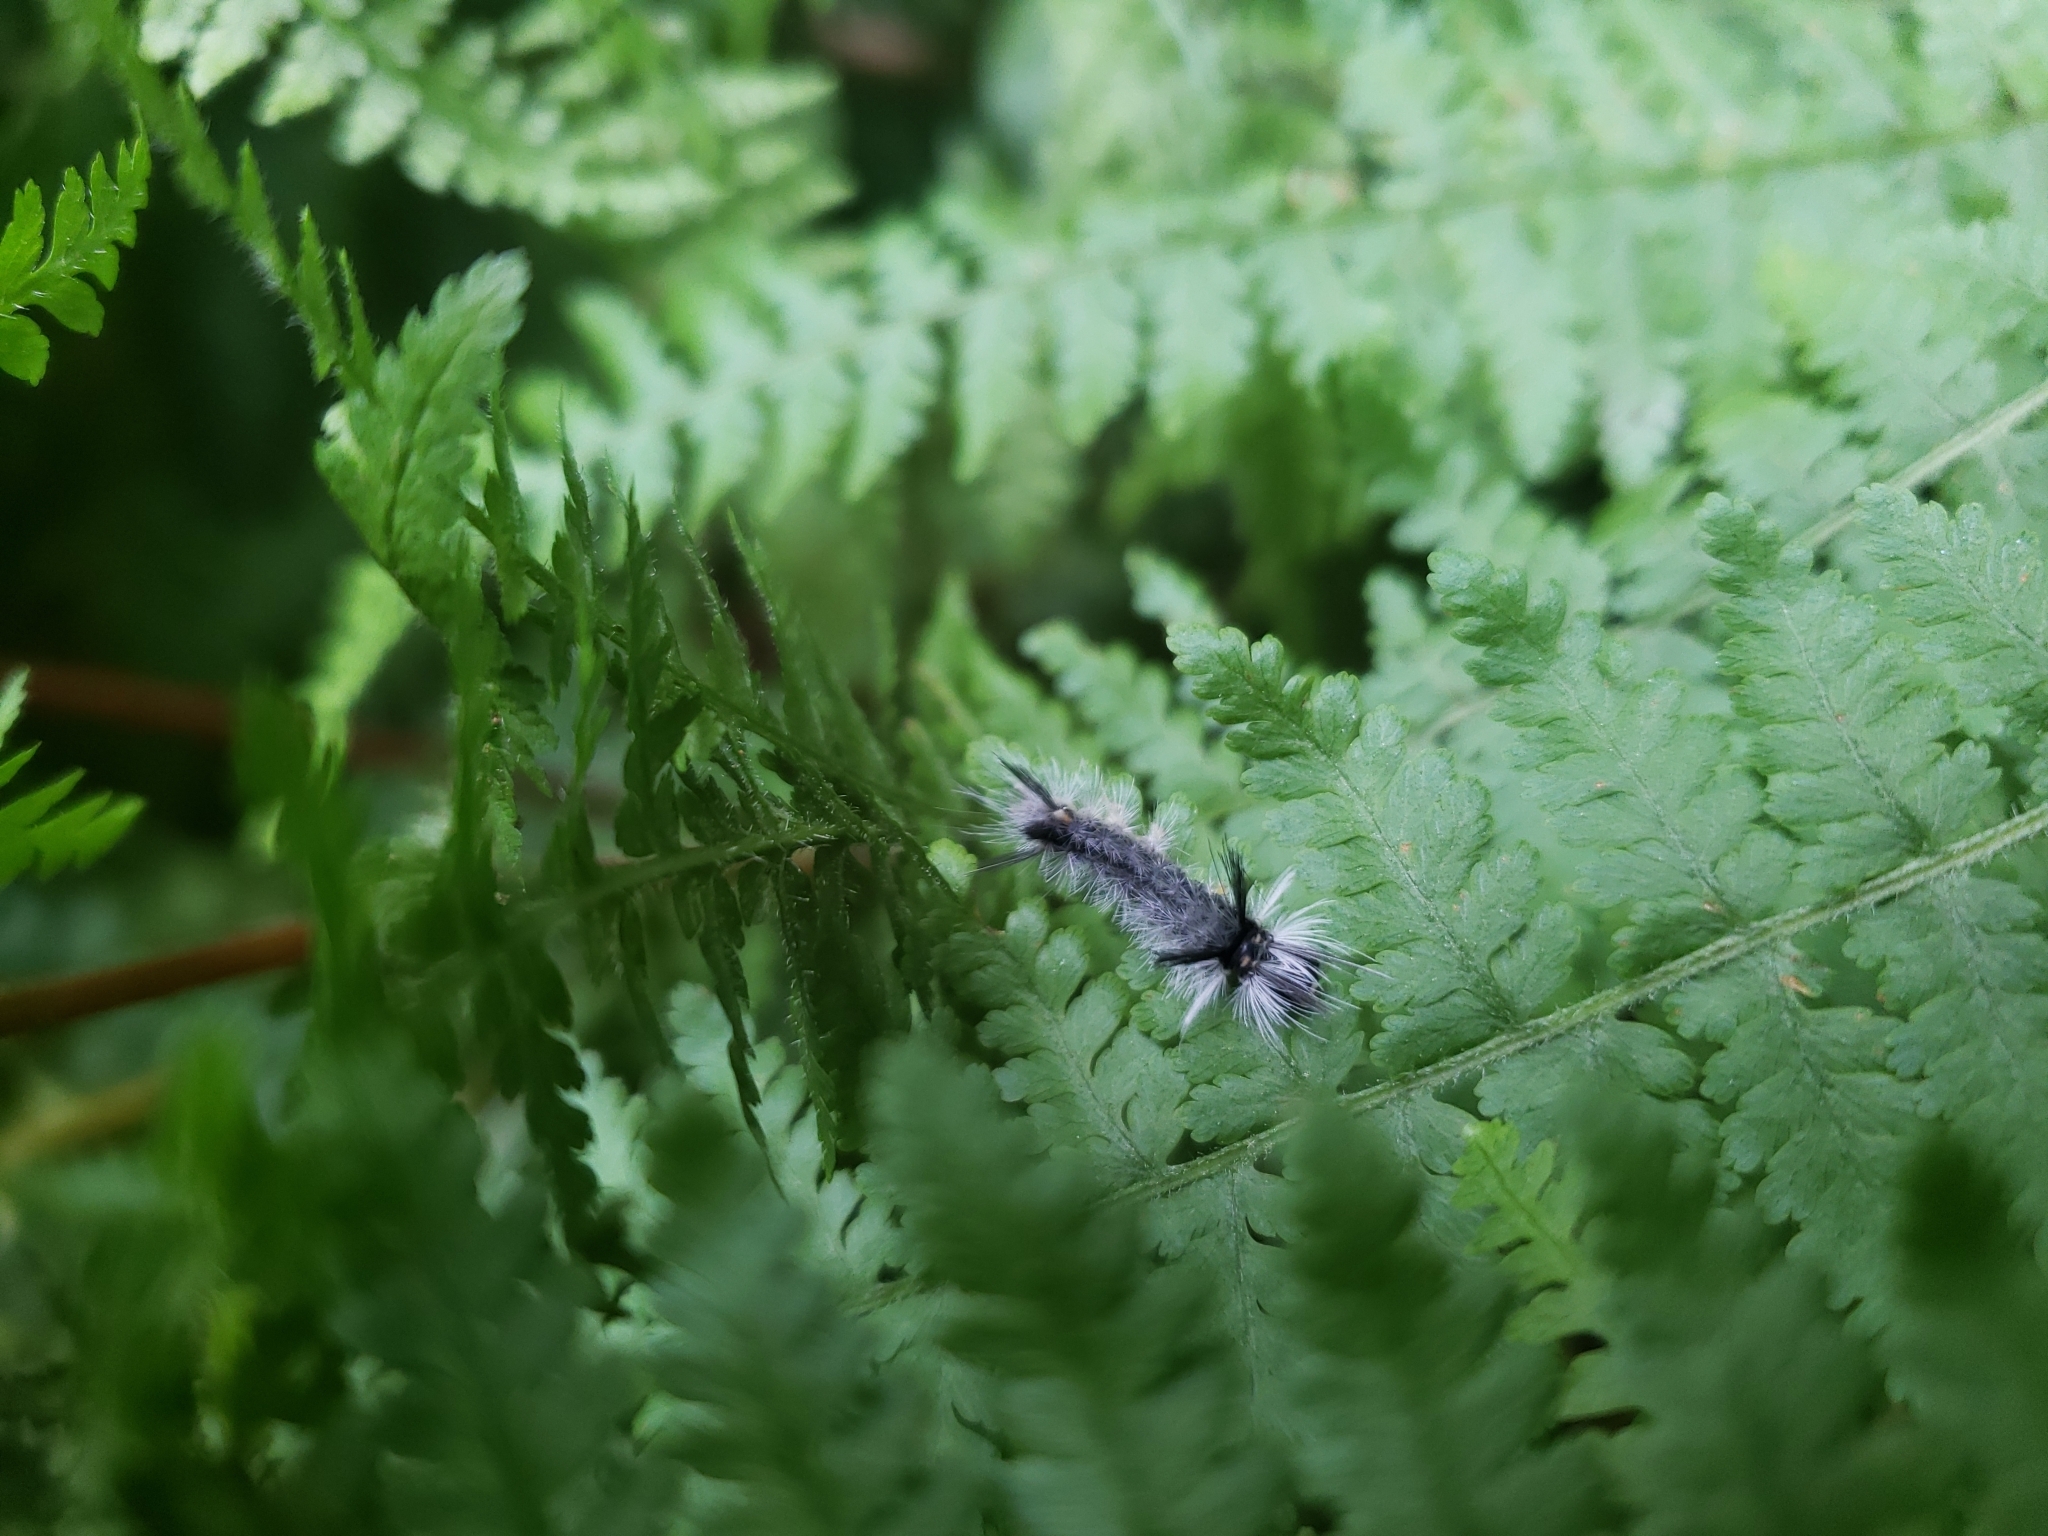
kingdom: Animalia
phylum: Arthropoda
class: Insecta
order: Lepidoptera
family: Erebidae
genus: Halysidota
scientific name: Halysidota tessellaris
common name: Banded tussock moth
